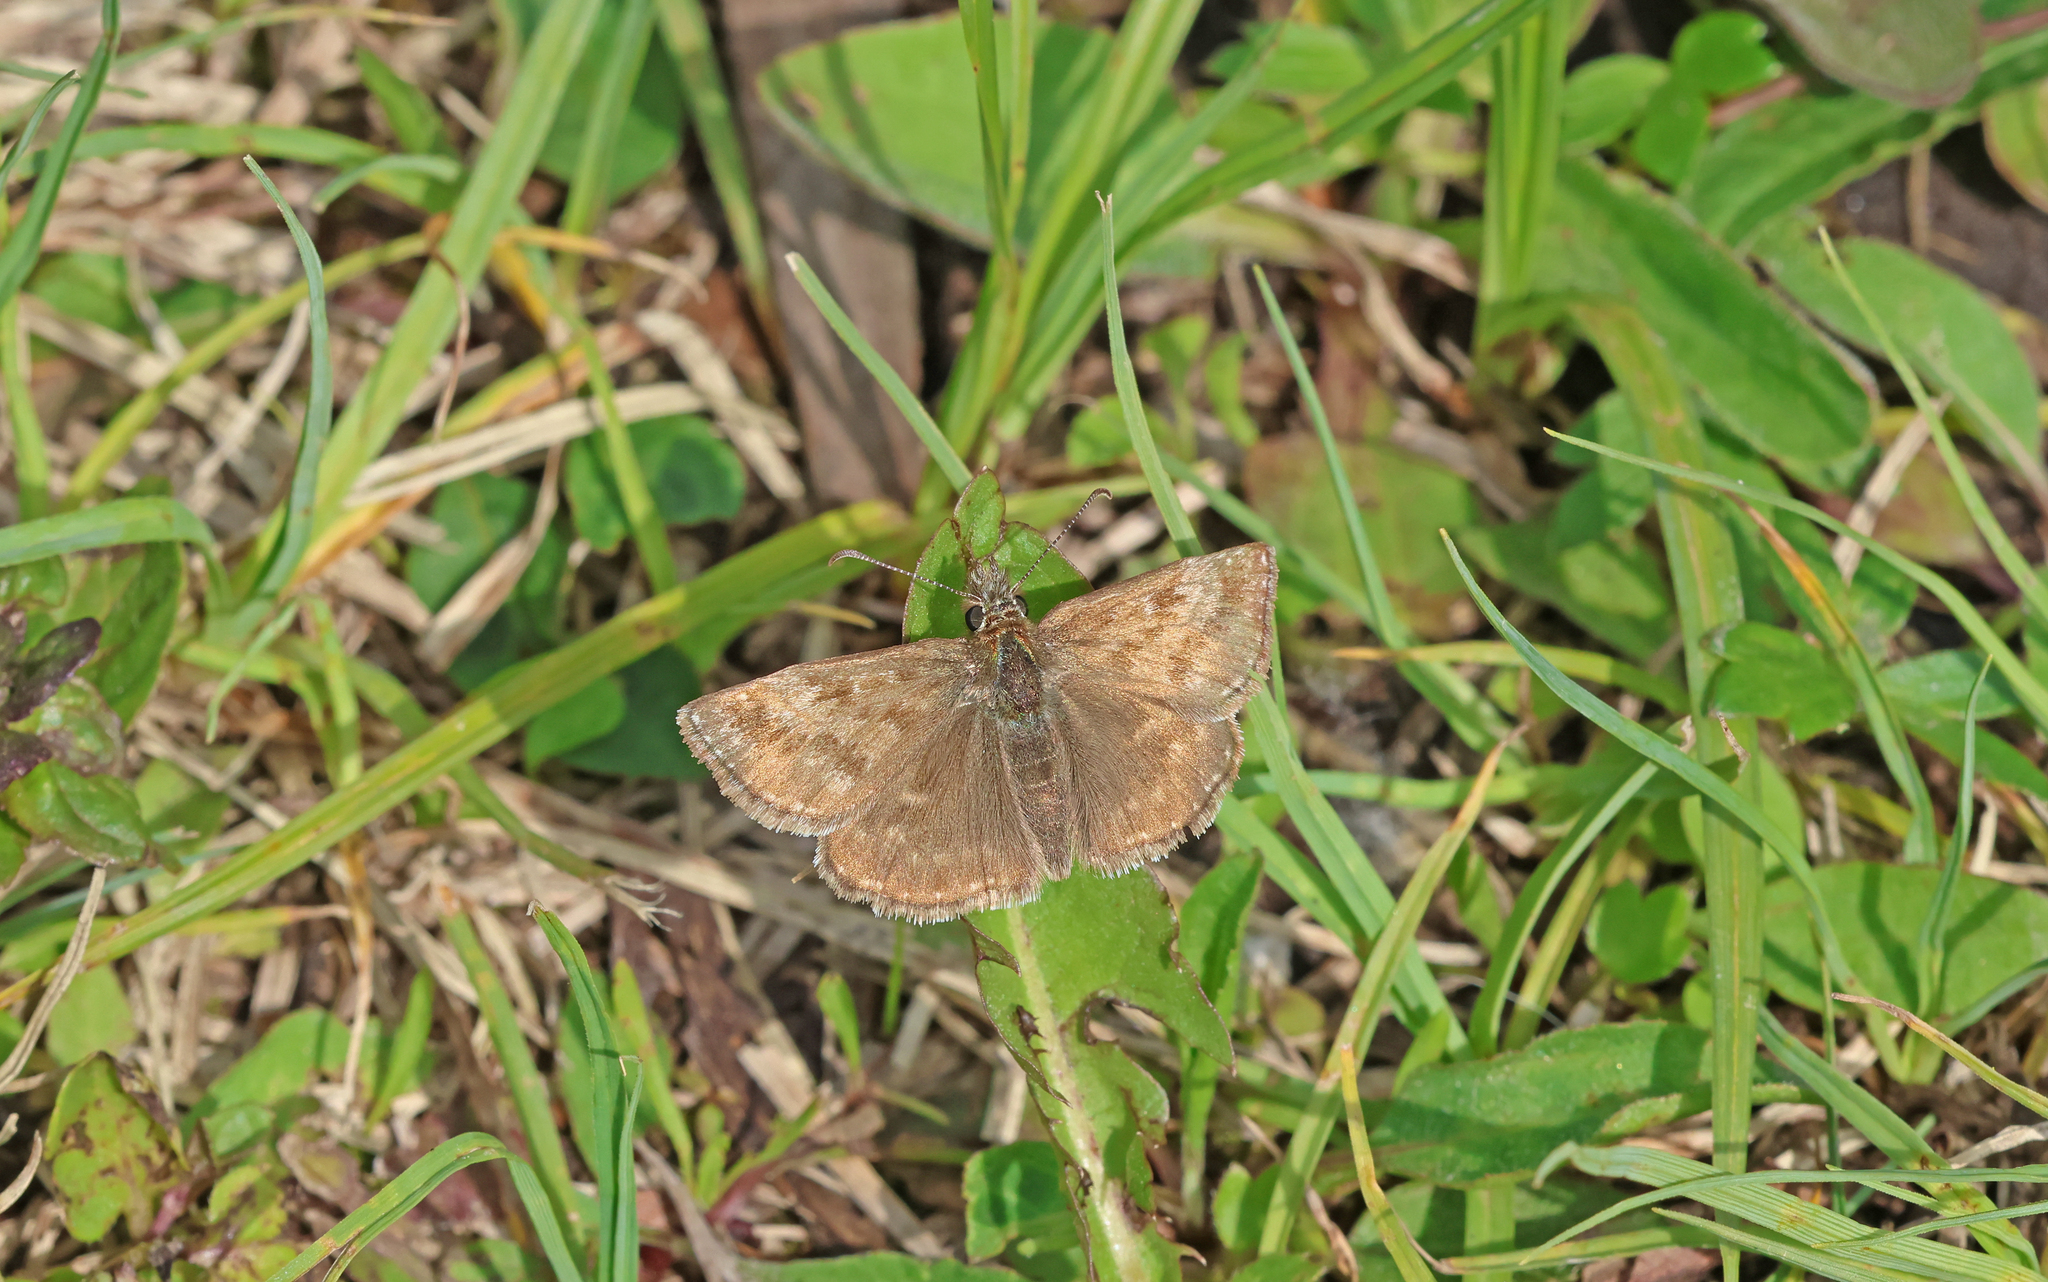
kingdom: Animalia
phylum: Arthropoda
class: Insecta
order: Lepidoptera
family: Hesperiidae
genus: Erynnis
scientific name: Erynnis tages
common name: Dingy skipper
